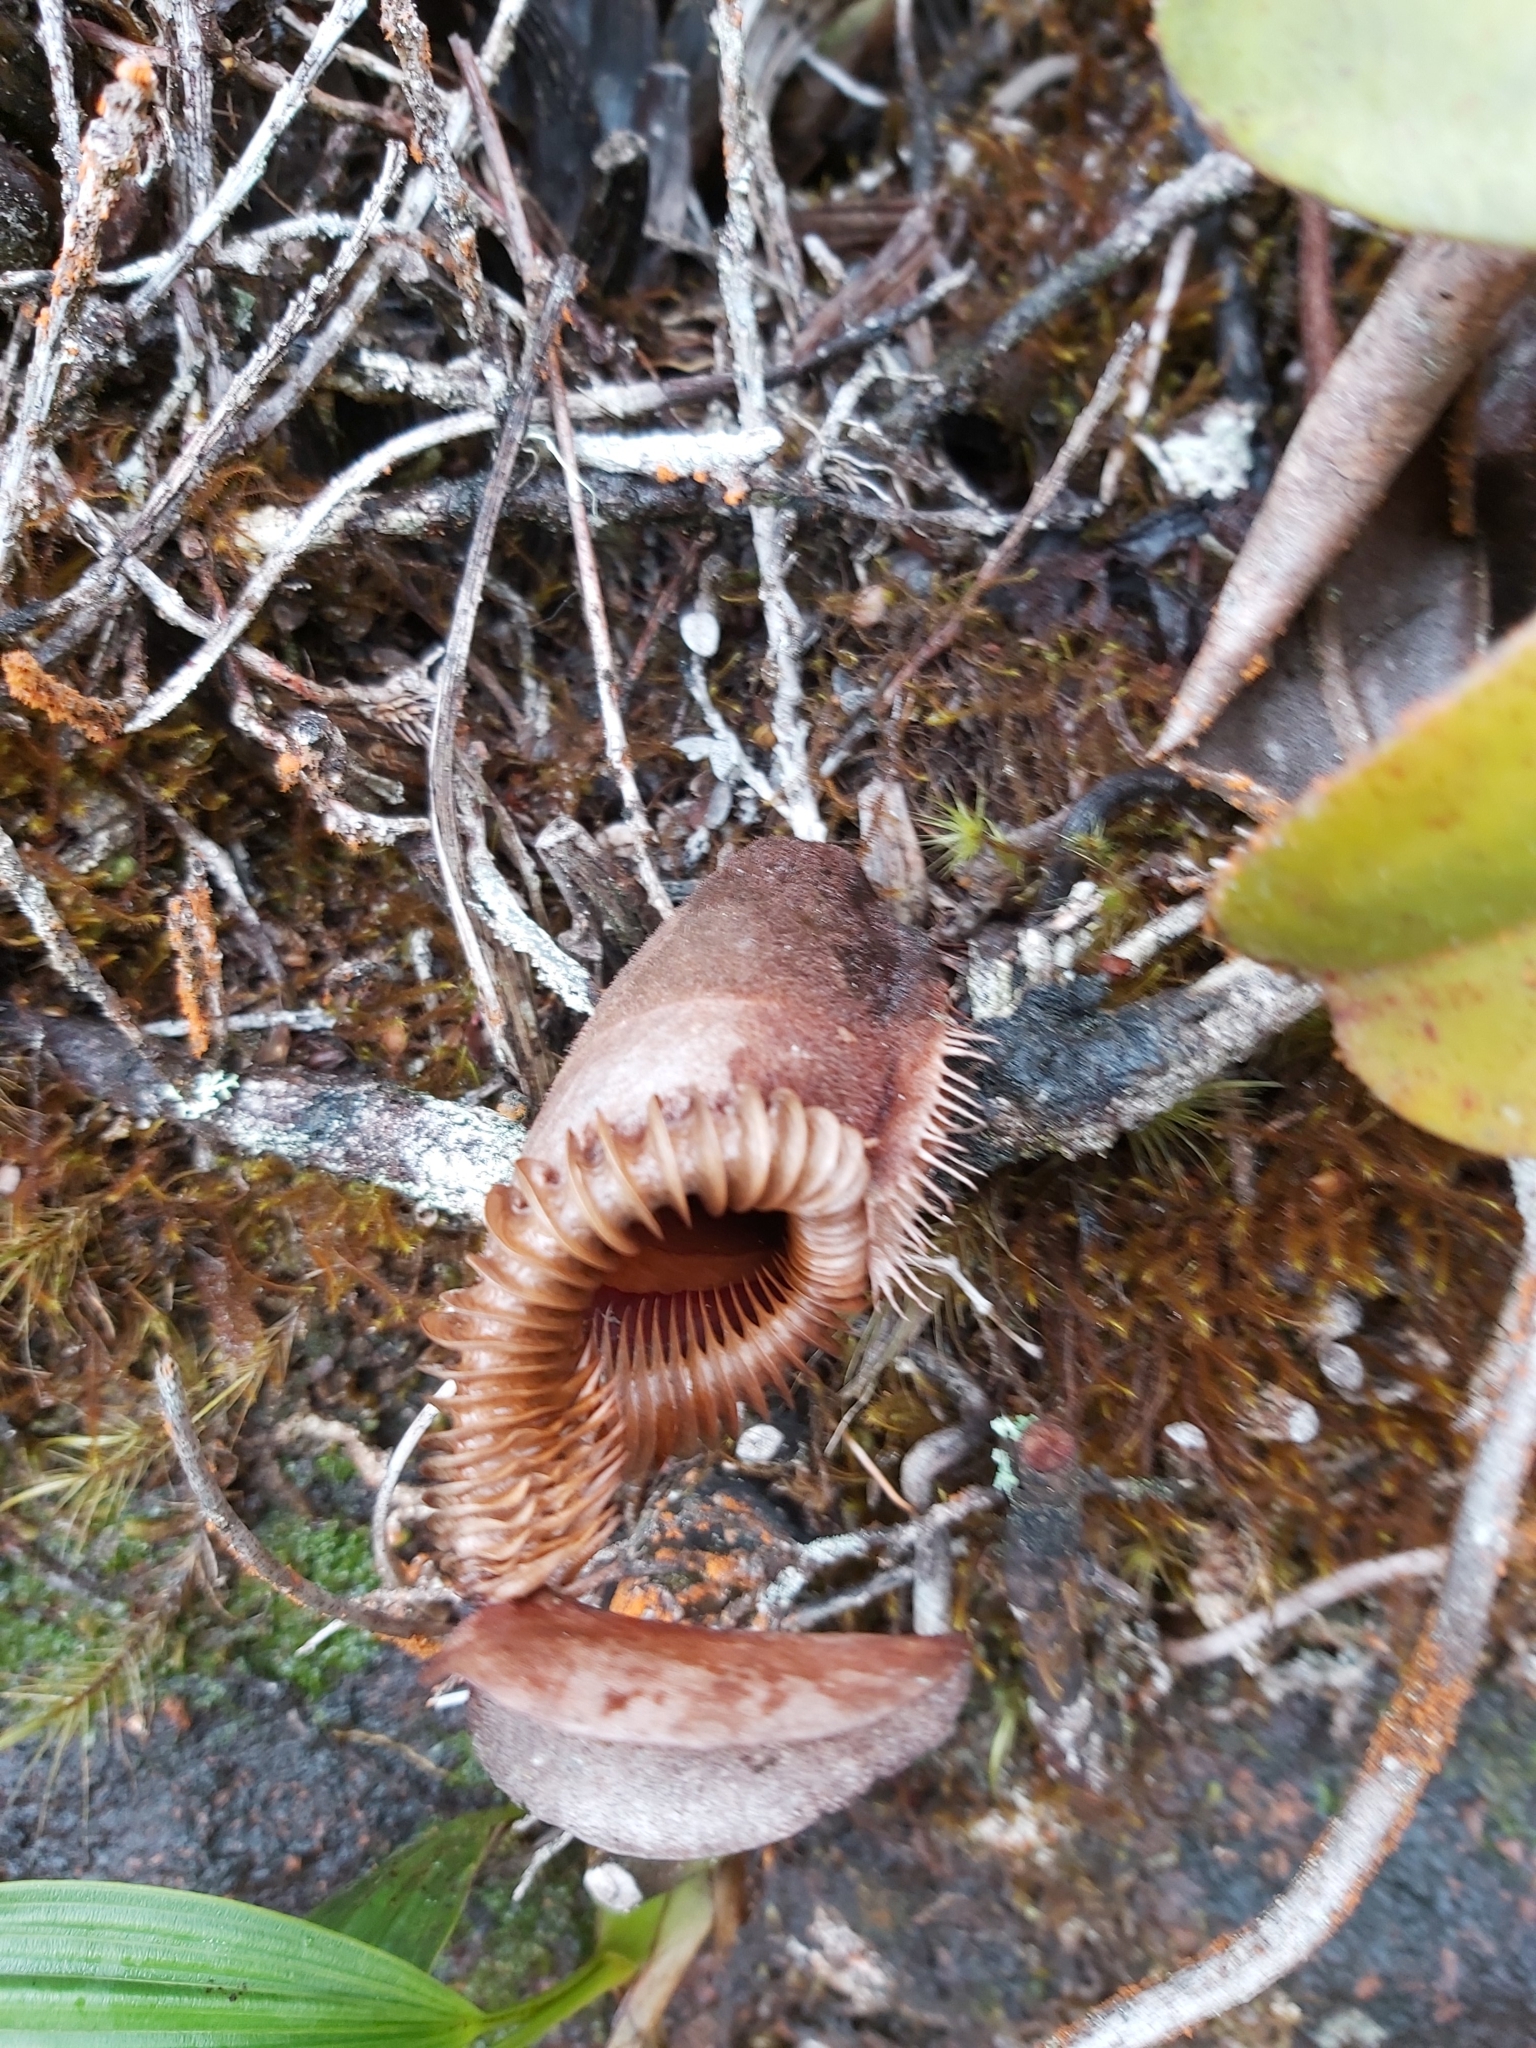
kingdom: Plantae
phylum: Tracheophyta
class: Magnoliopsida
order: Caryophyllales
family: Nepenthaceae
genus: Nepenthes
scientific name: Nepenthes villosa
